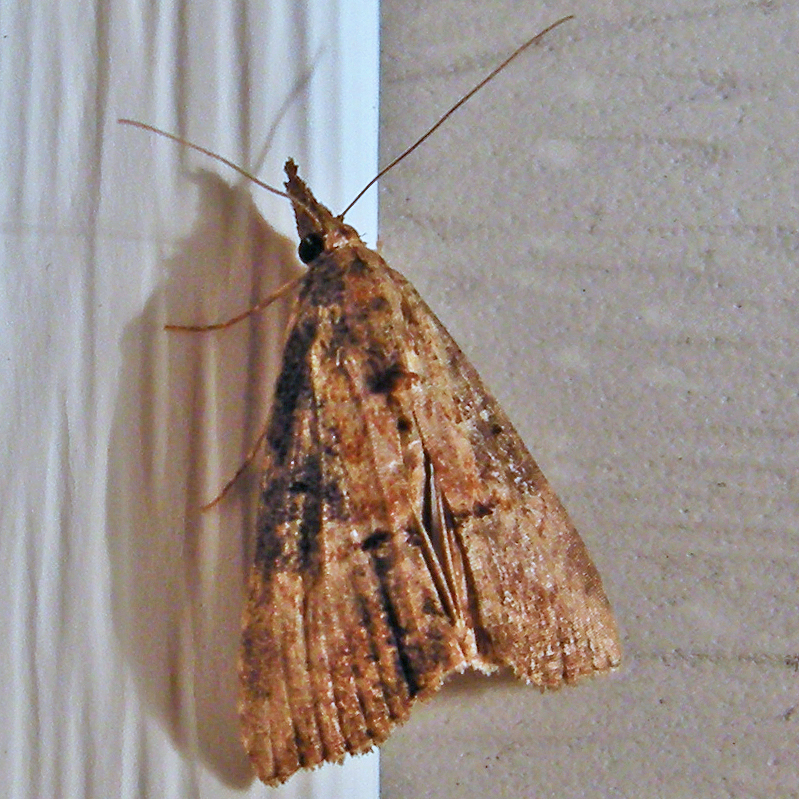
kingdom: Animalia
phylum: Arthropoda
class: Insecta
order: Lepidoptera
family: Erebidae
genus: Hypena
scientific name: Hypena scabra
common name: Green cloverworm
